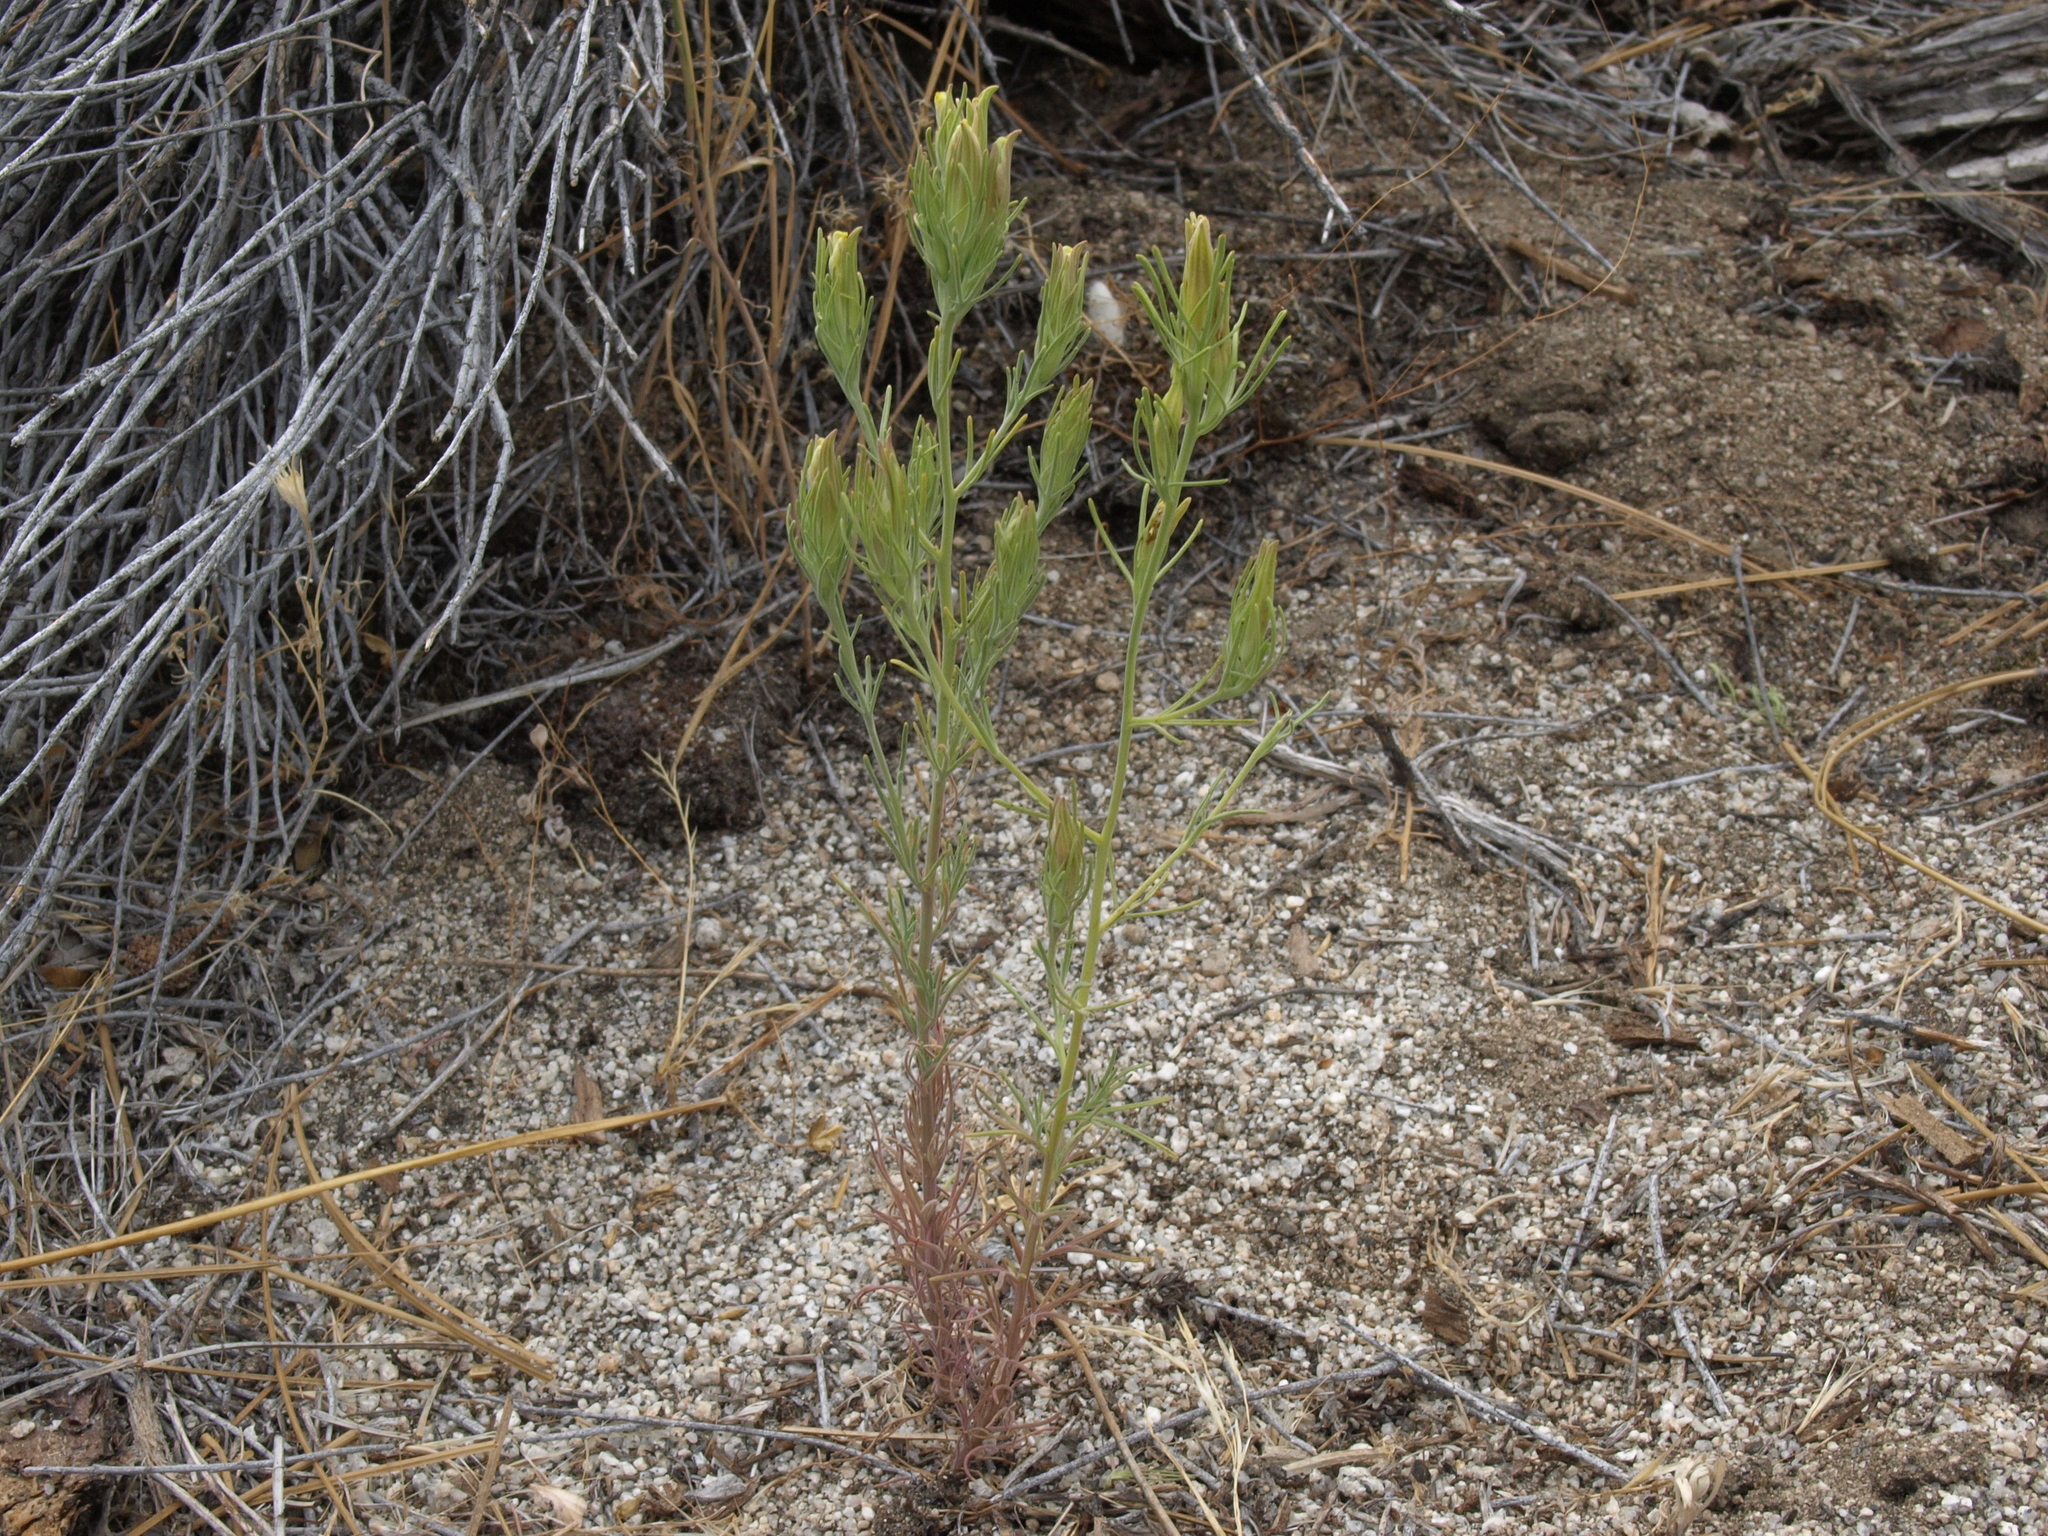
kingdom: Plantae
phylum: Tracheophyta
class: Magnoliopsida
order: Lamiales
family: Orobanchaceae
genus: Cordylanthus
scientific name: Cordylanthus ramosus
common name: Much-branched bird's-beak
